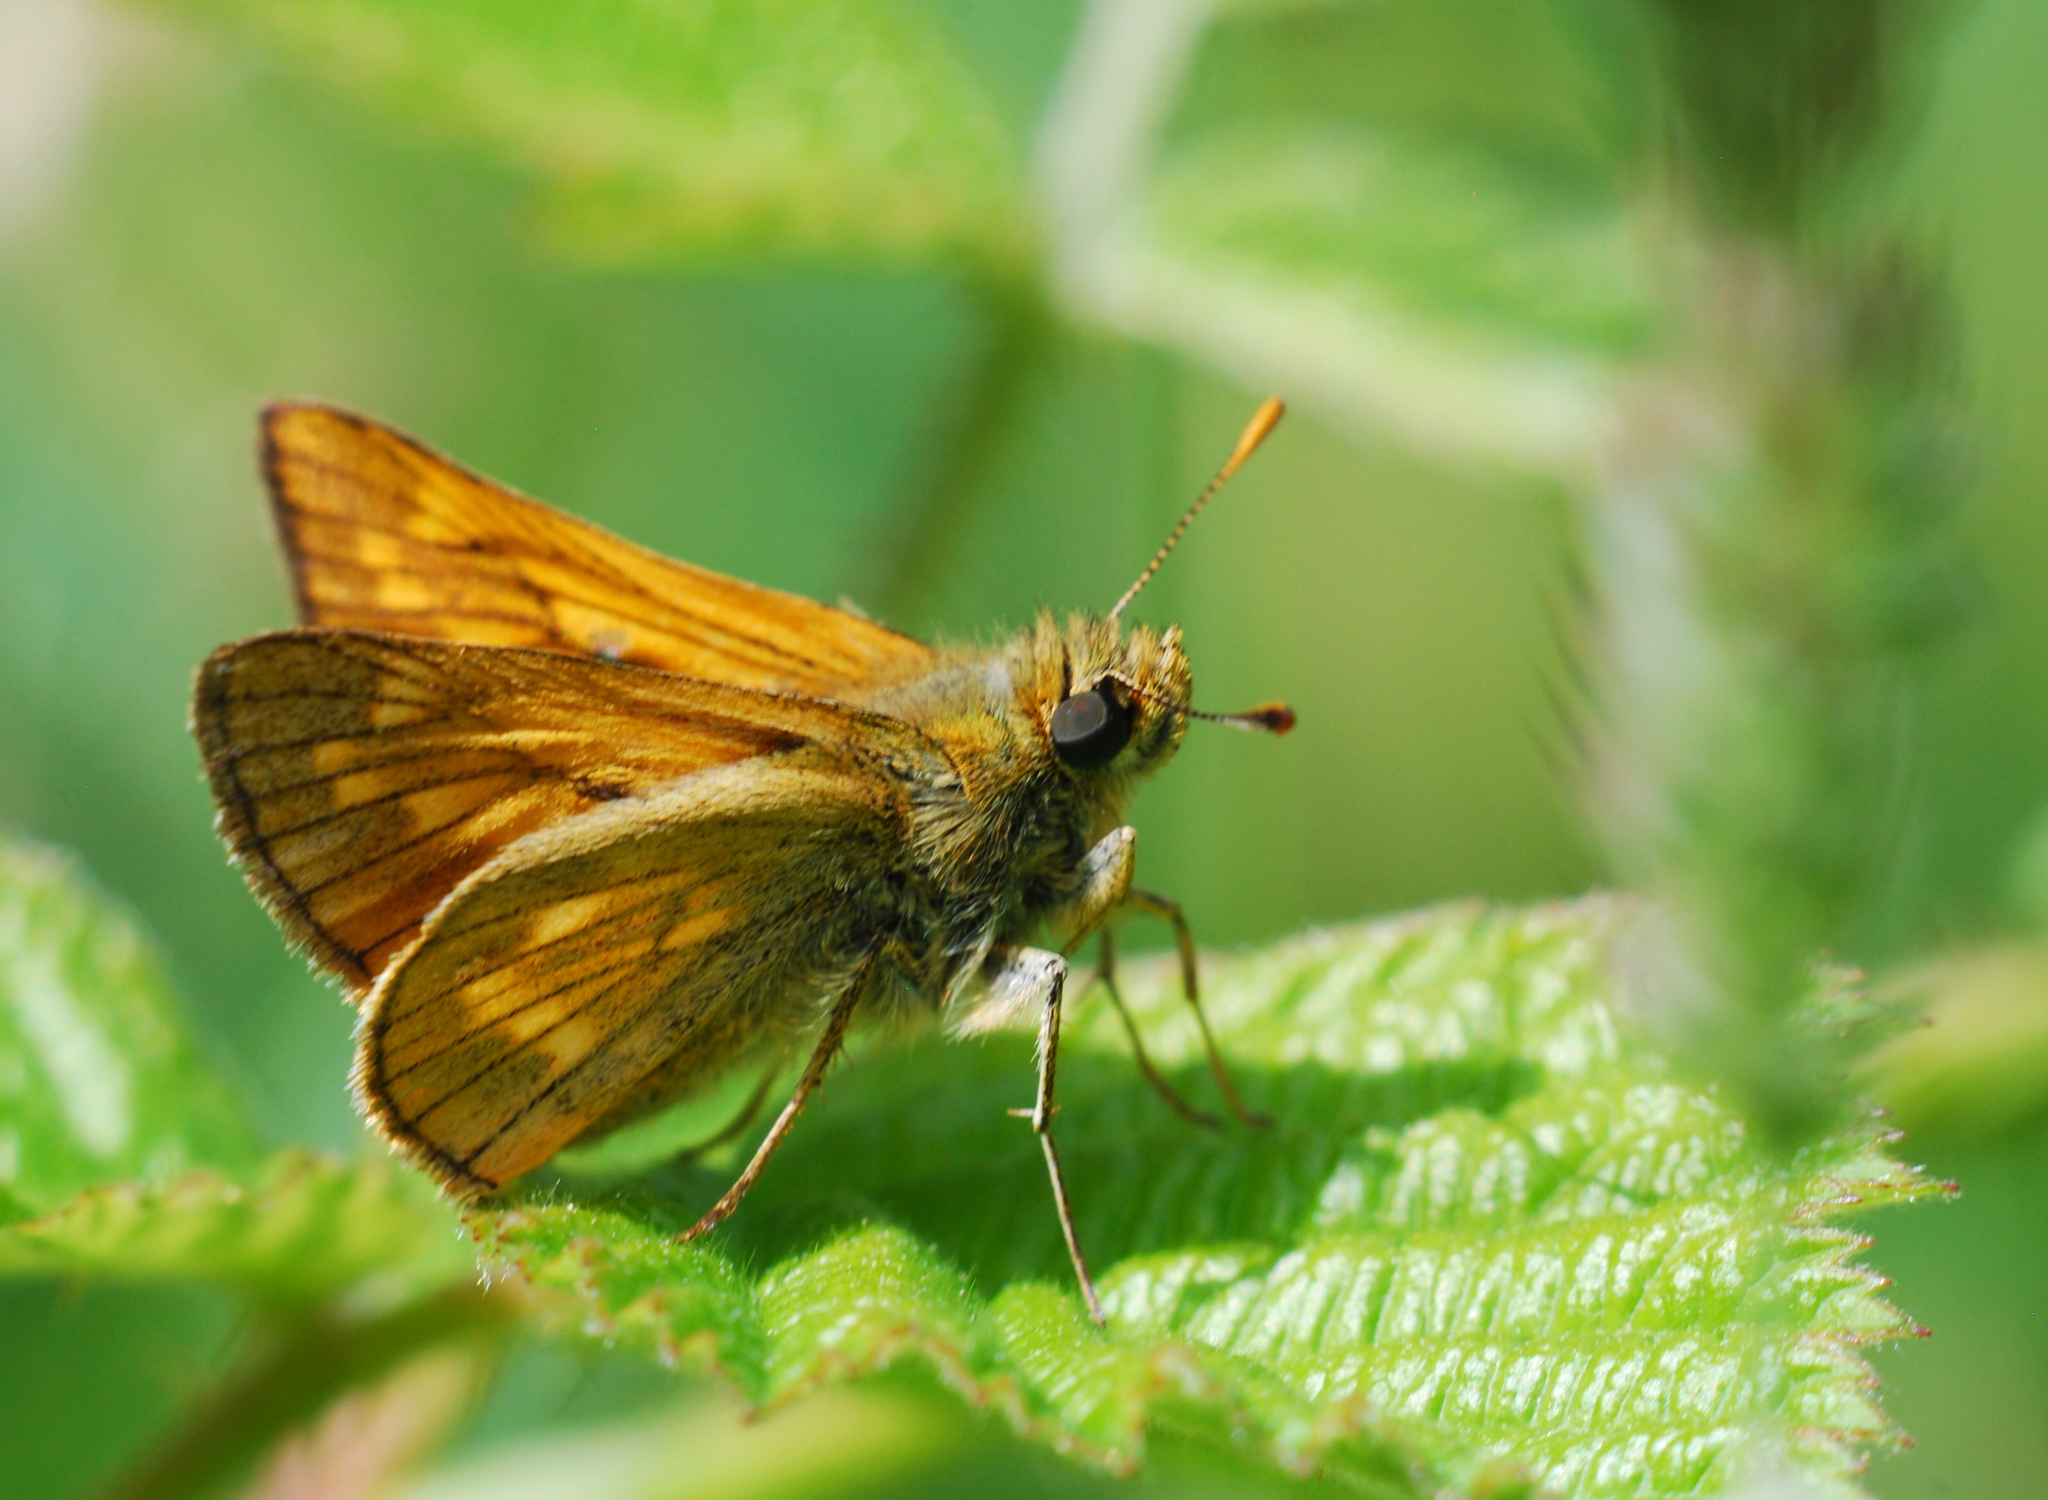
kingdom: Animalia
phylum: Arthropoda
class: Insecta
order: Lepidoptera
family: Hesperiidae
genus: Ochlodes
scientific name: Ochlodes venata
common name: Large skipper
